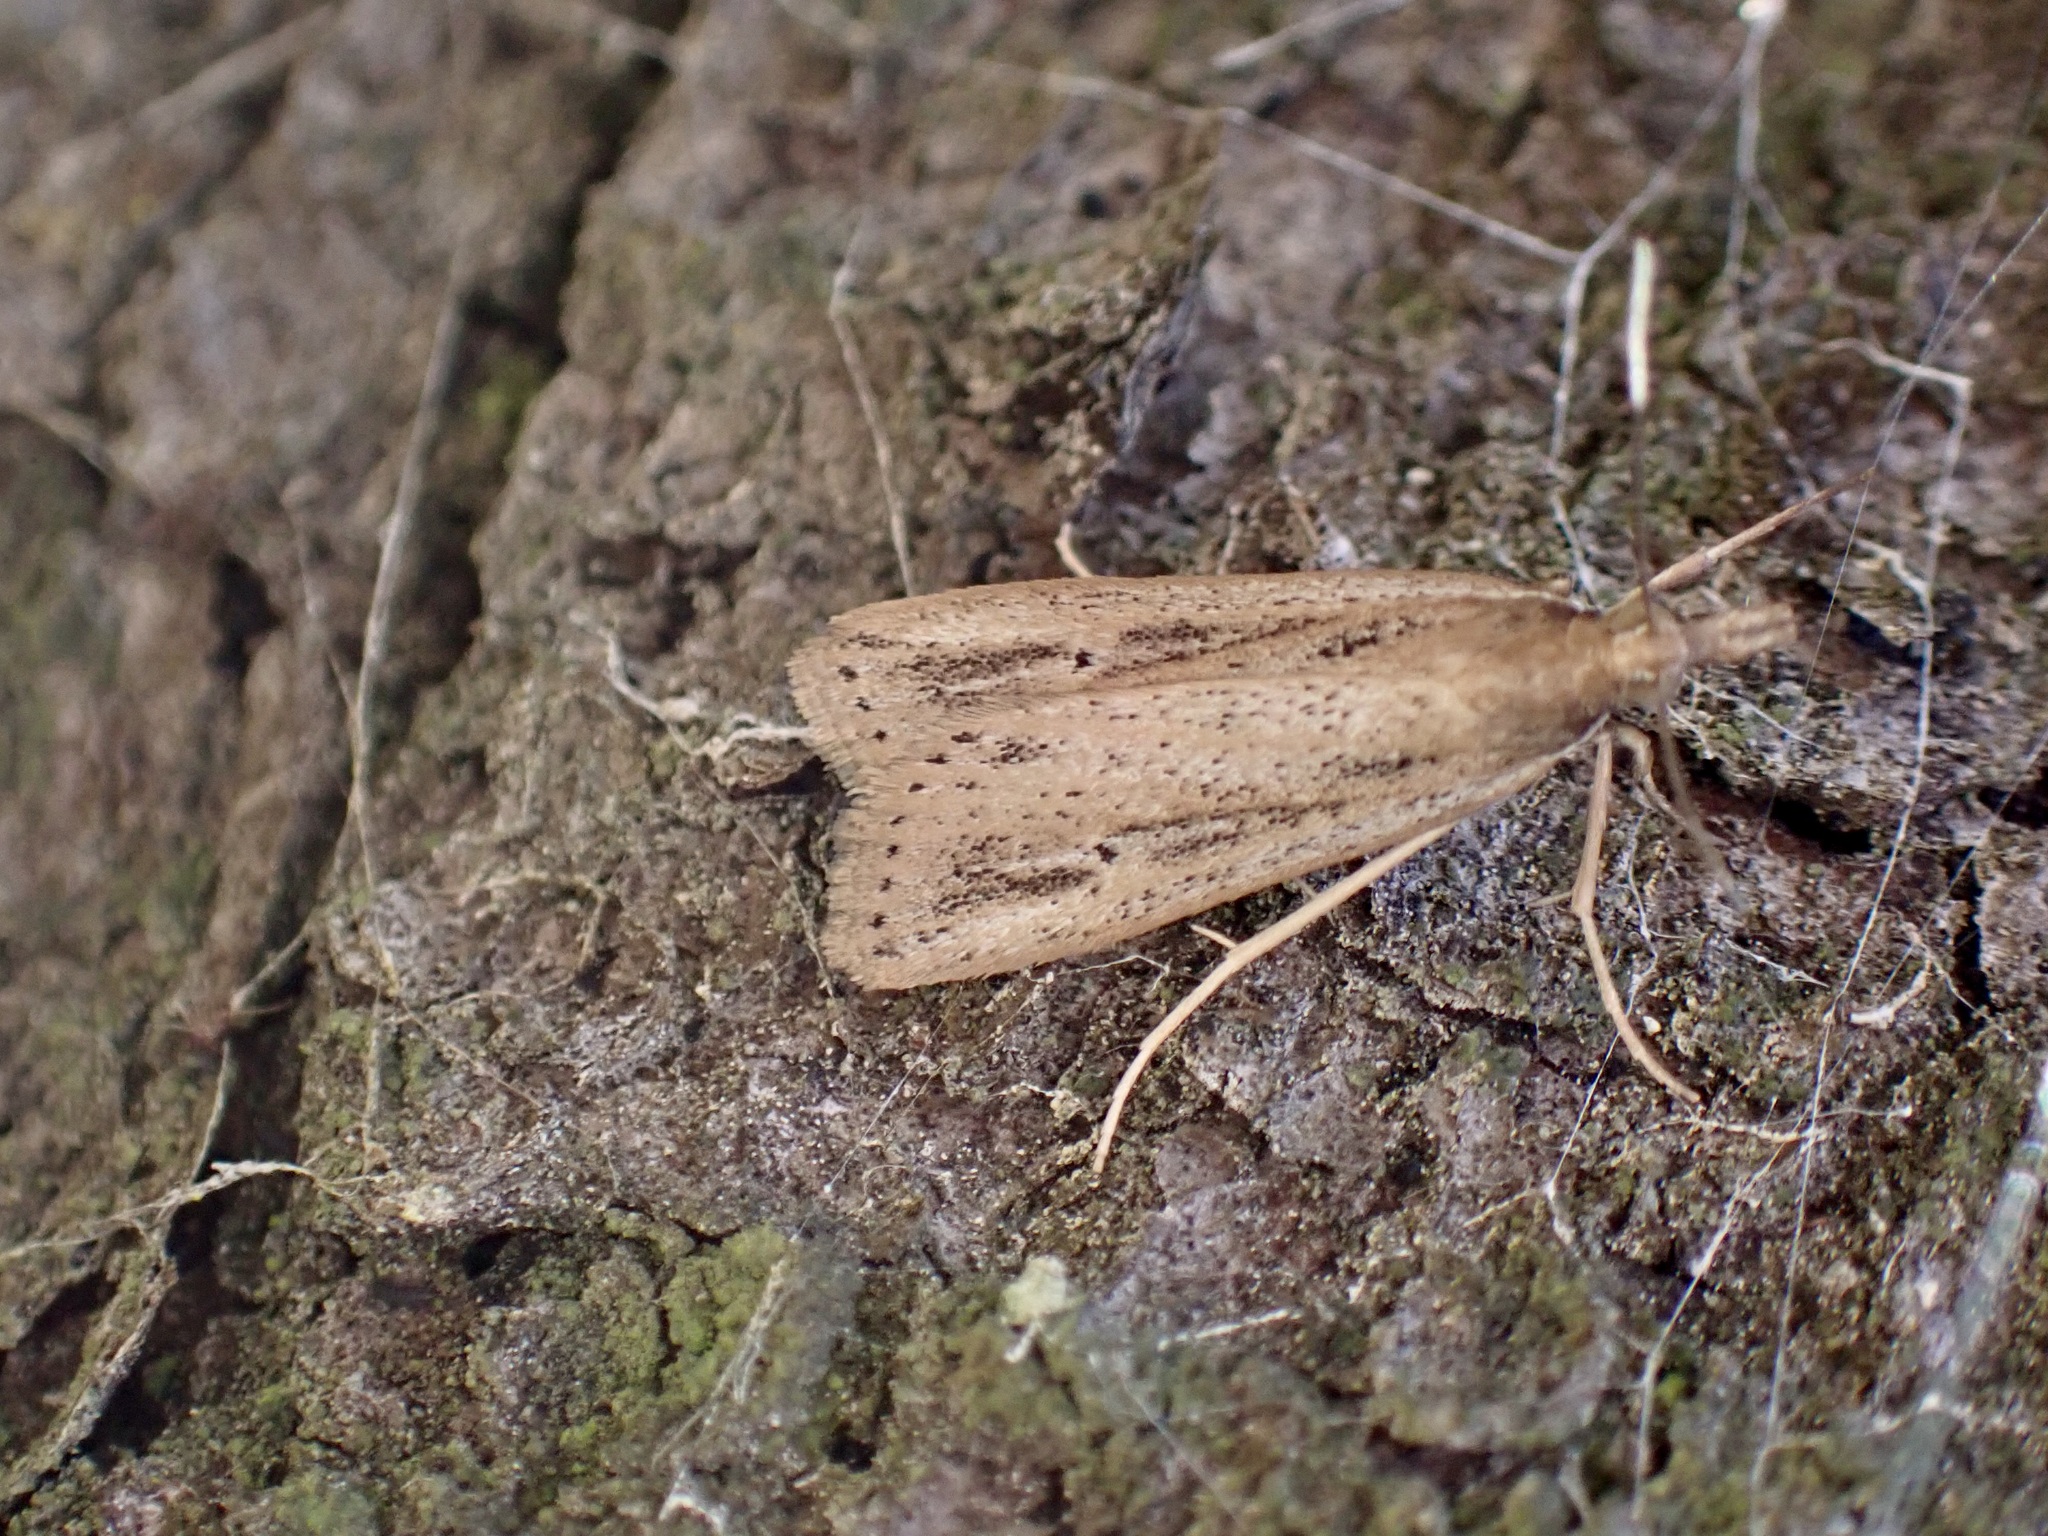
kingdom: Animalia
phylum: Arthropoda
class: Insecta
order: Lepidoptera
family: Crambidae
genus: Eudonia
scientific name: Eudonia sabulosella
